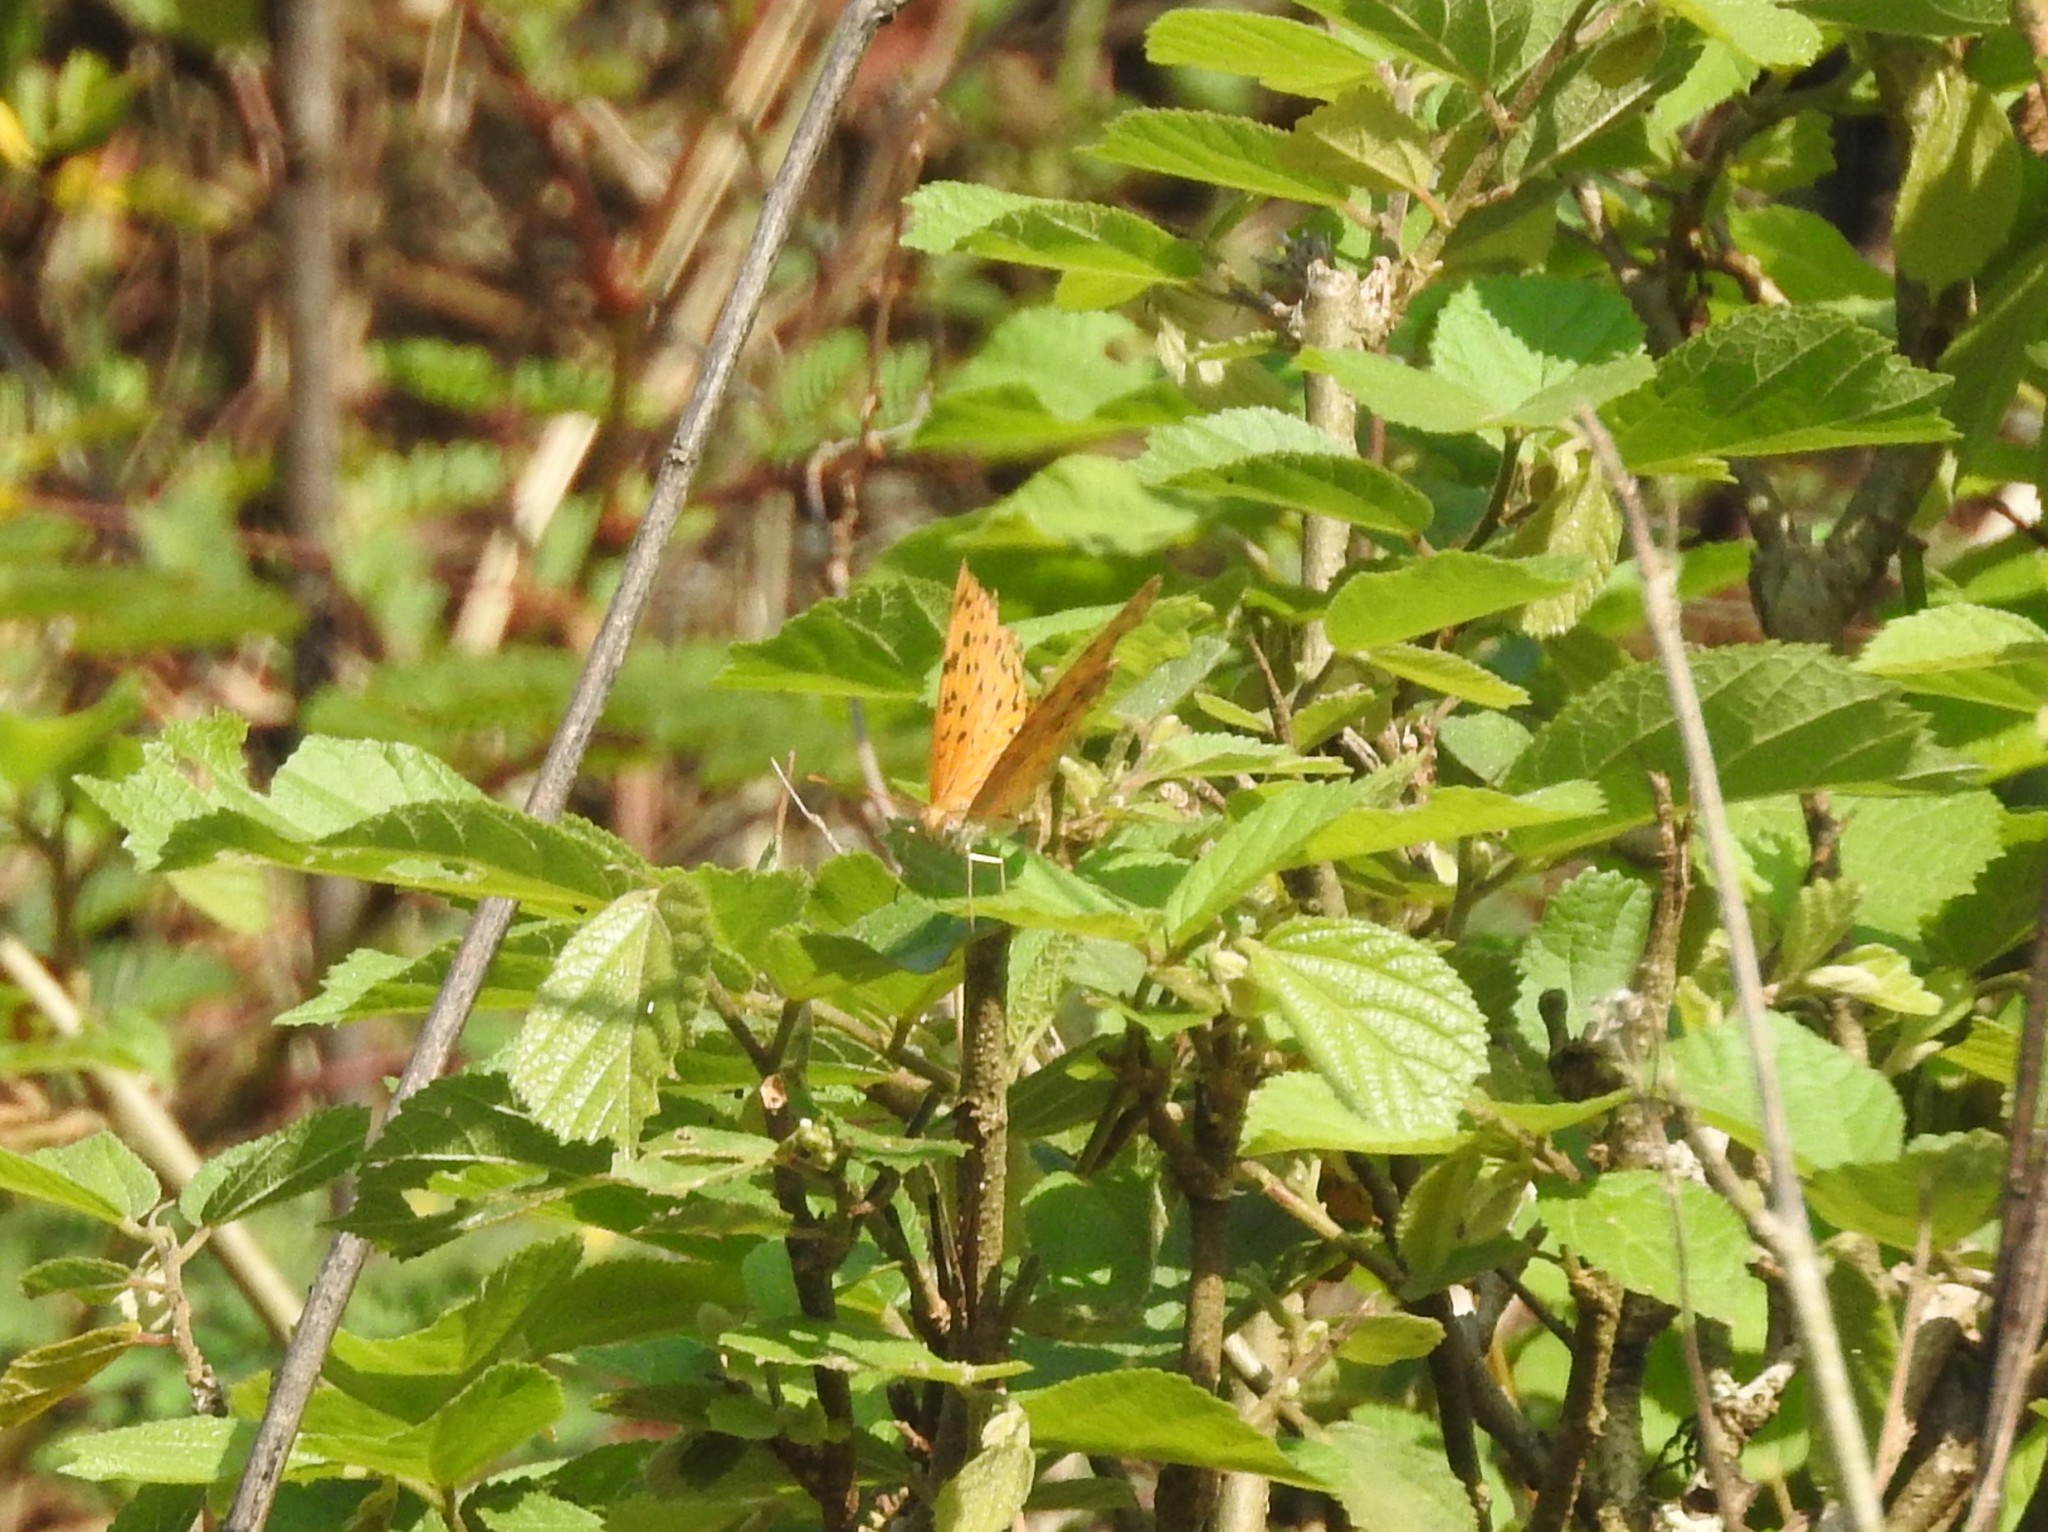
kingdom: Animalia
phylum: Arthropoda
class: Insecta
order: Lepidoptera
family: Nymphalidae
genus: Phalanta
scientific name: Phalanta phalantha
